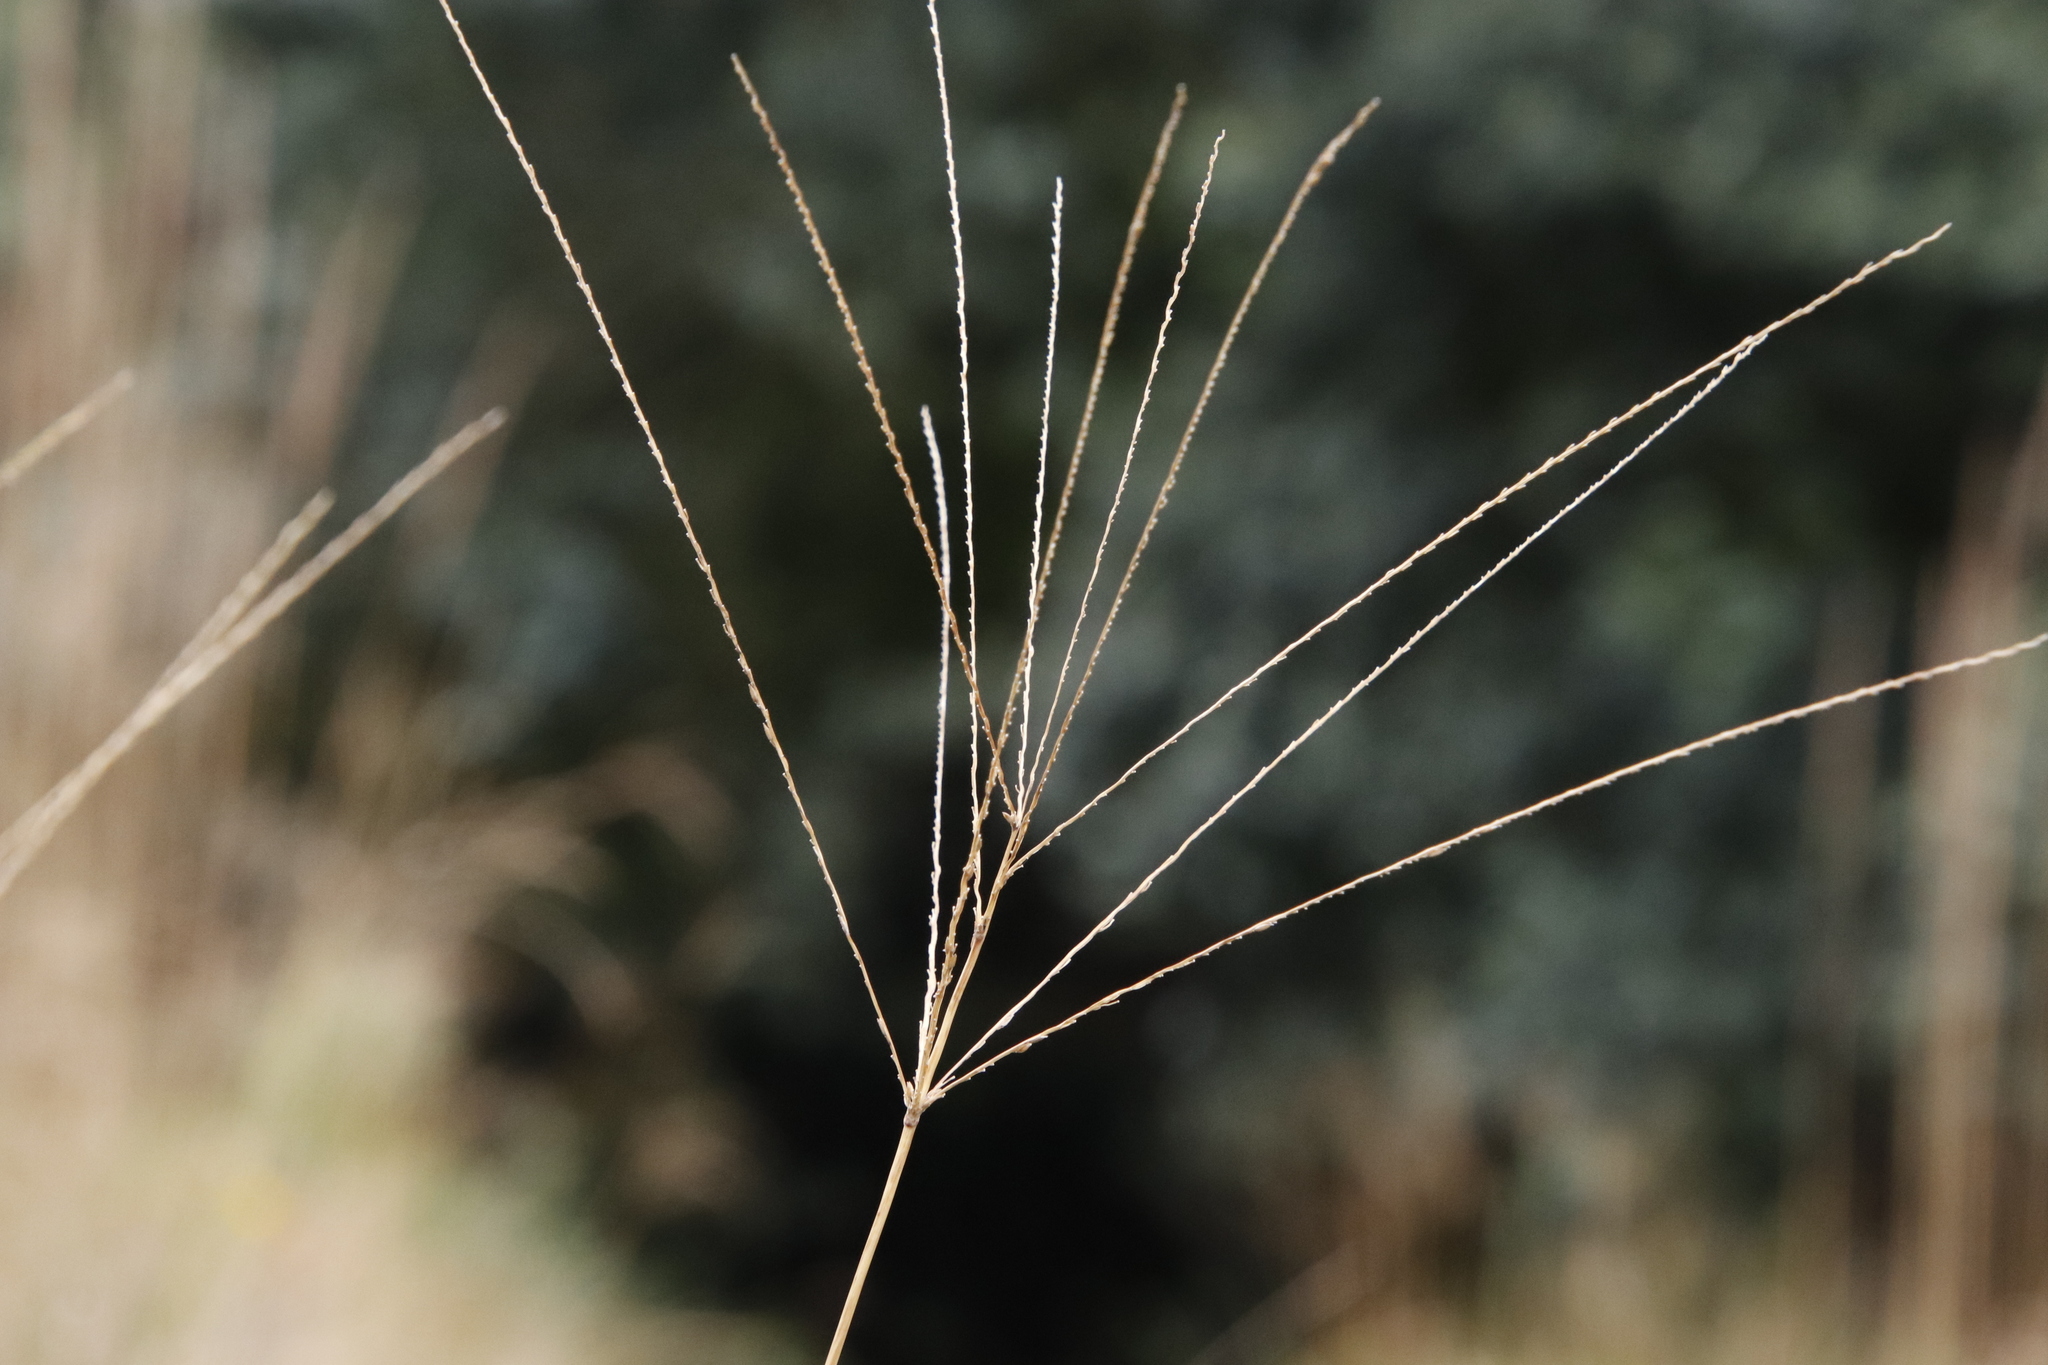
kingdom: Plantae
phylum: Tracheophyta
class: Liliopsida
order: Poales
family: Poaceae
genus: Digitaria
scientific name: Digitaria eriantha
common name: Digitgrass
